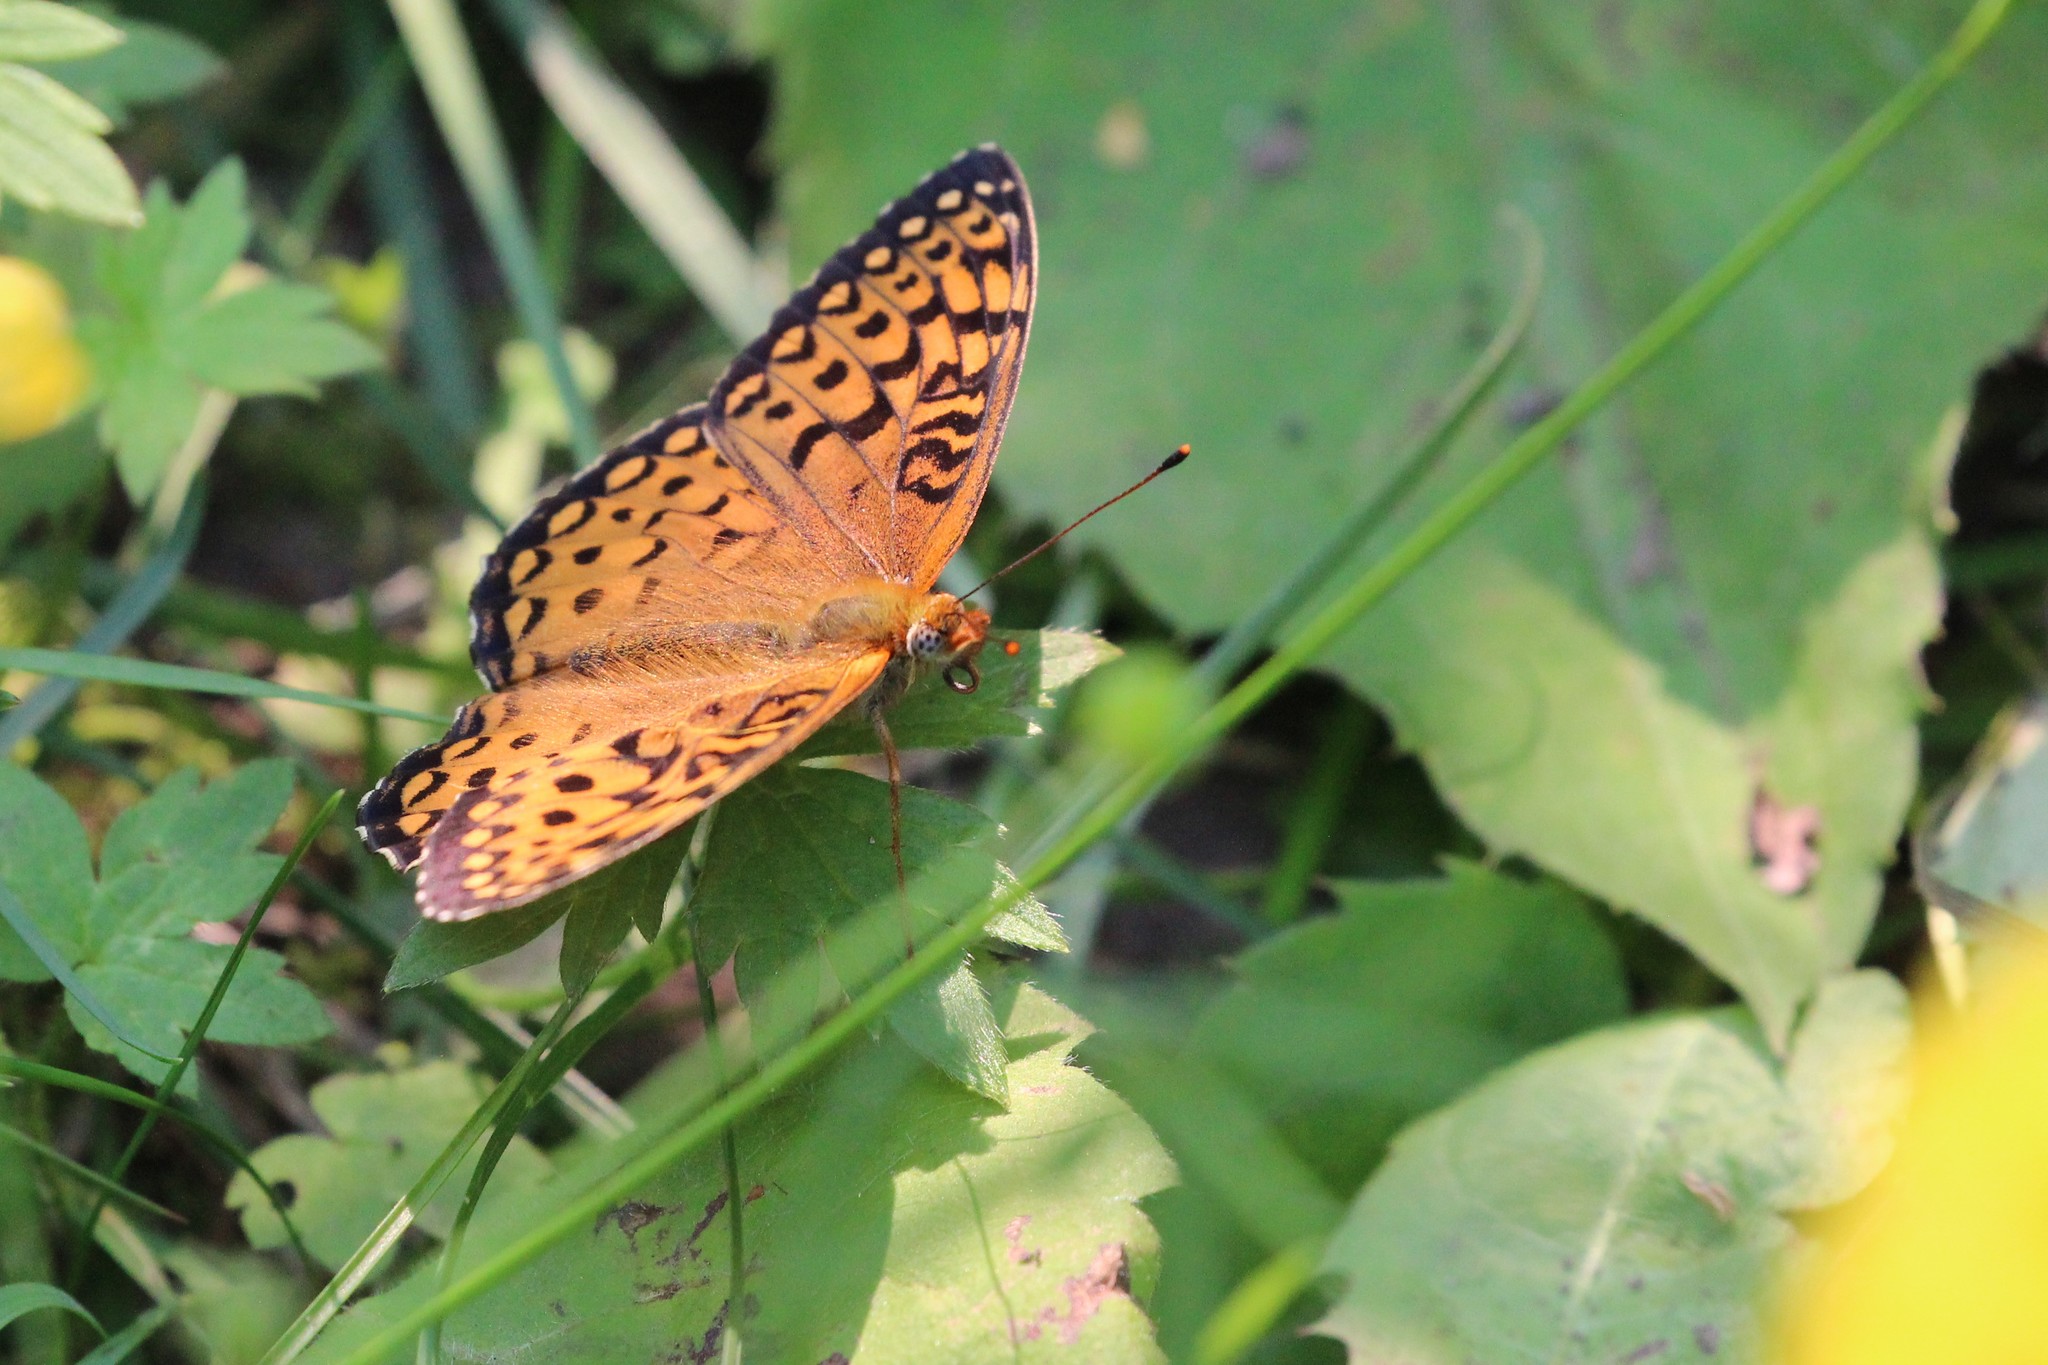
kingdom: Animalia
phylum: Arthropoda
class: Insecta
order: Lepidoptera
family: Nymphalidae
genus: Speyeria
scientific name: Speyeria atlantis
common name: Atlantis fritillary
